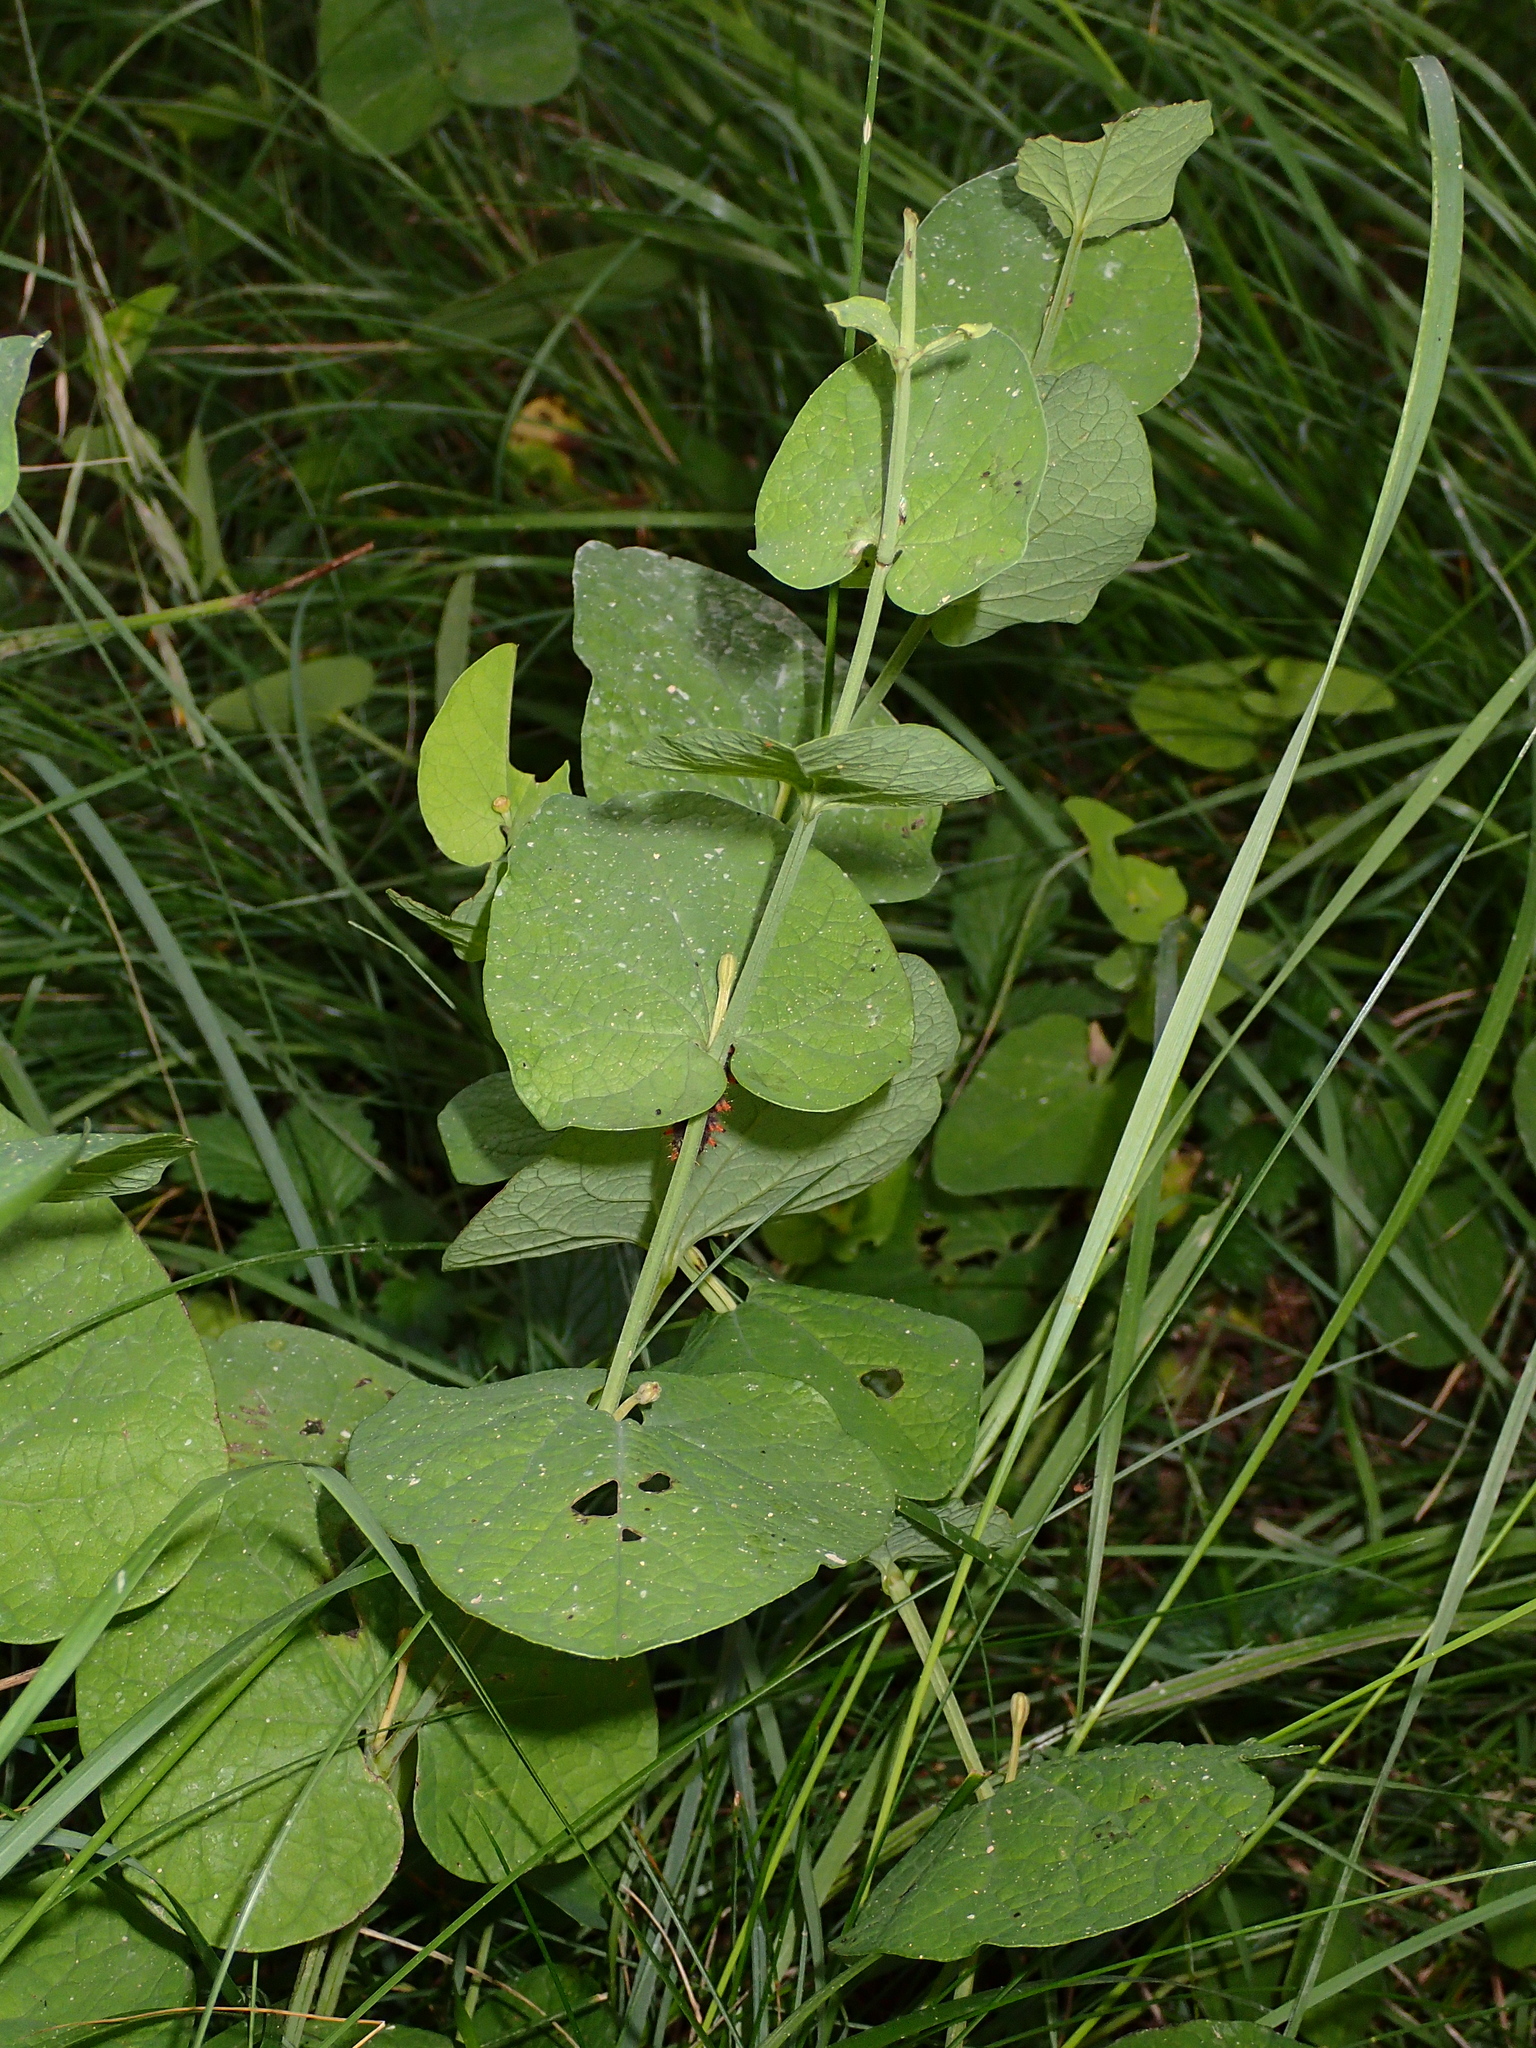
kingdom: Plantae
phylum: Tracheophyta
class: Magnoliopsida
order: Piperales
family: Aristolochiaceae
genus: Aristolochia
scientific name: Aristolochia rotunda
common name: Smearwort
